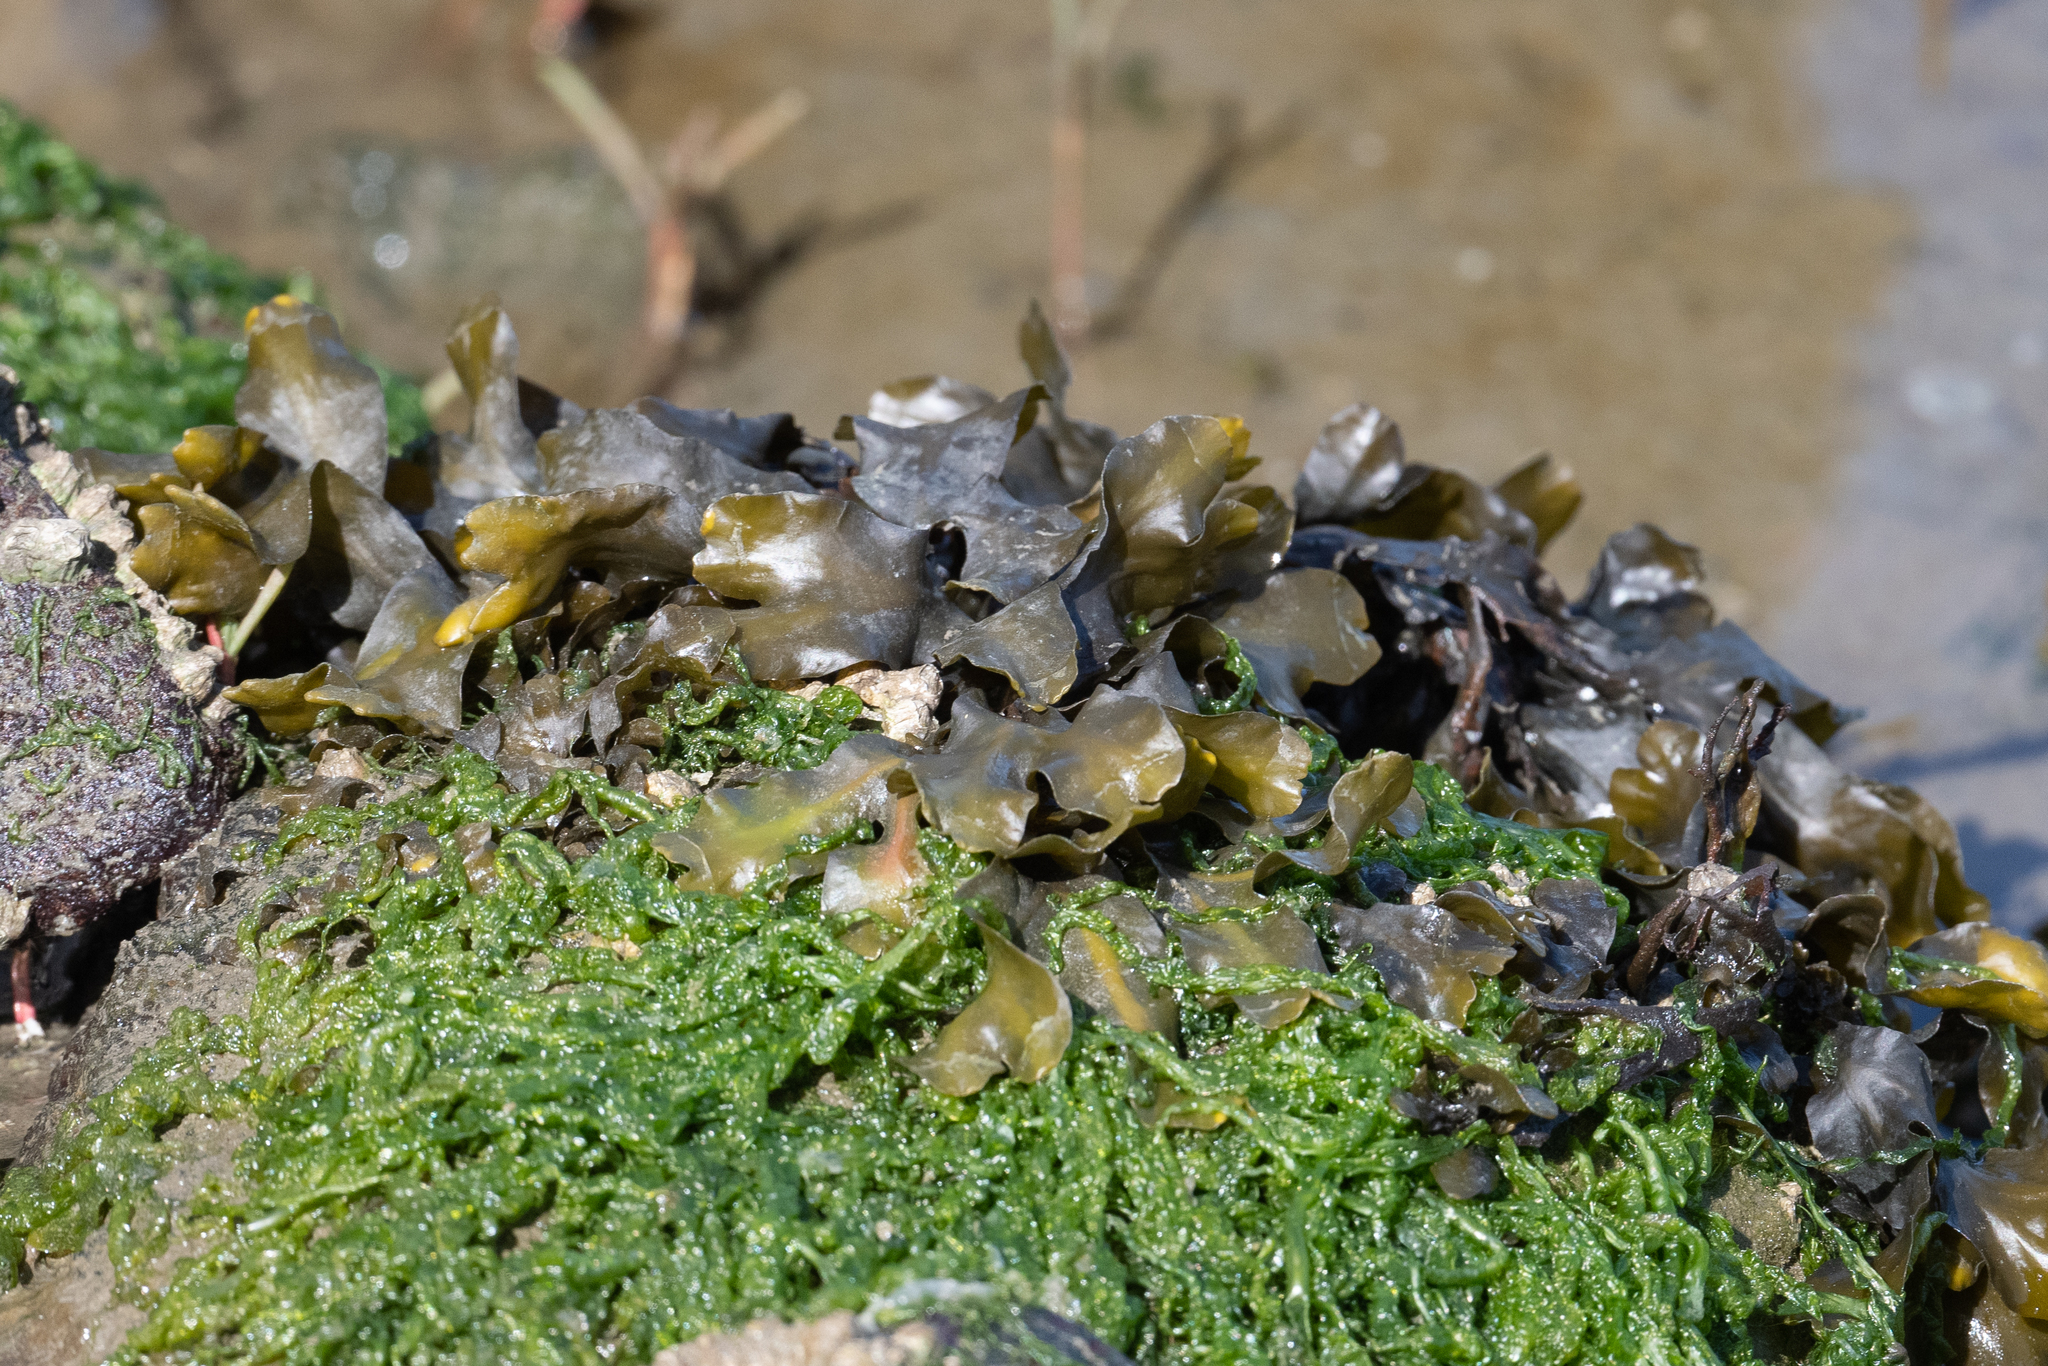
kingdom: Chromista
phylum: Ochrophyta
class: Phaeophyceae
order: Fucales
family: Fucaceae
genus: Fucus
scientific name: Fucus distichus
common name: Rockweed
